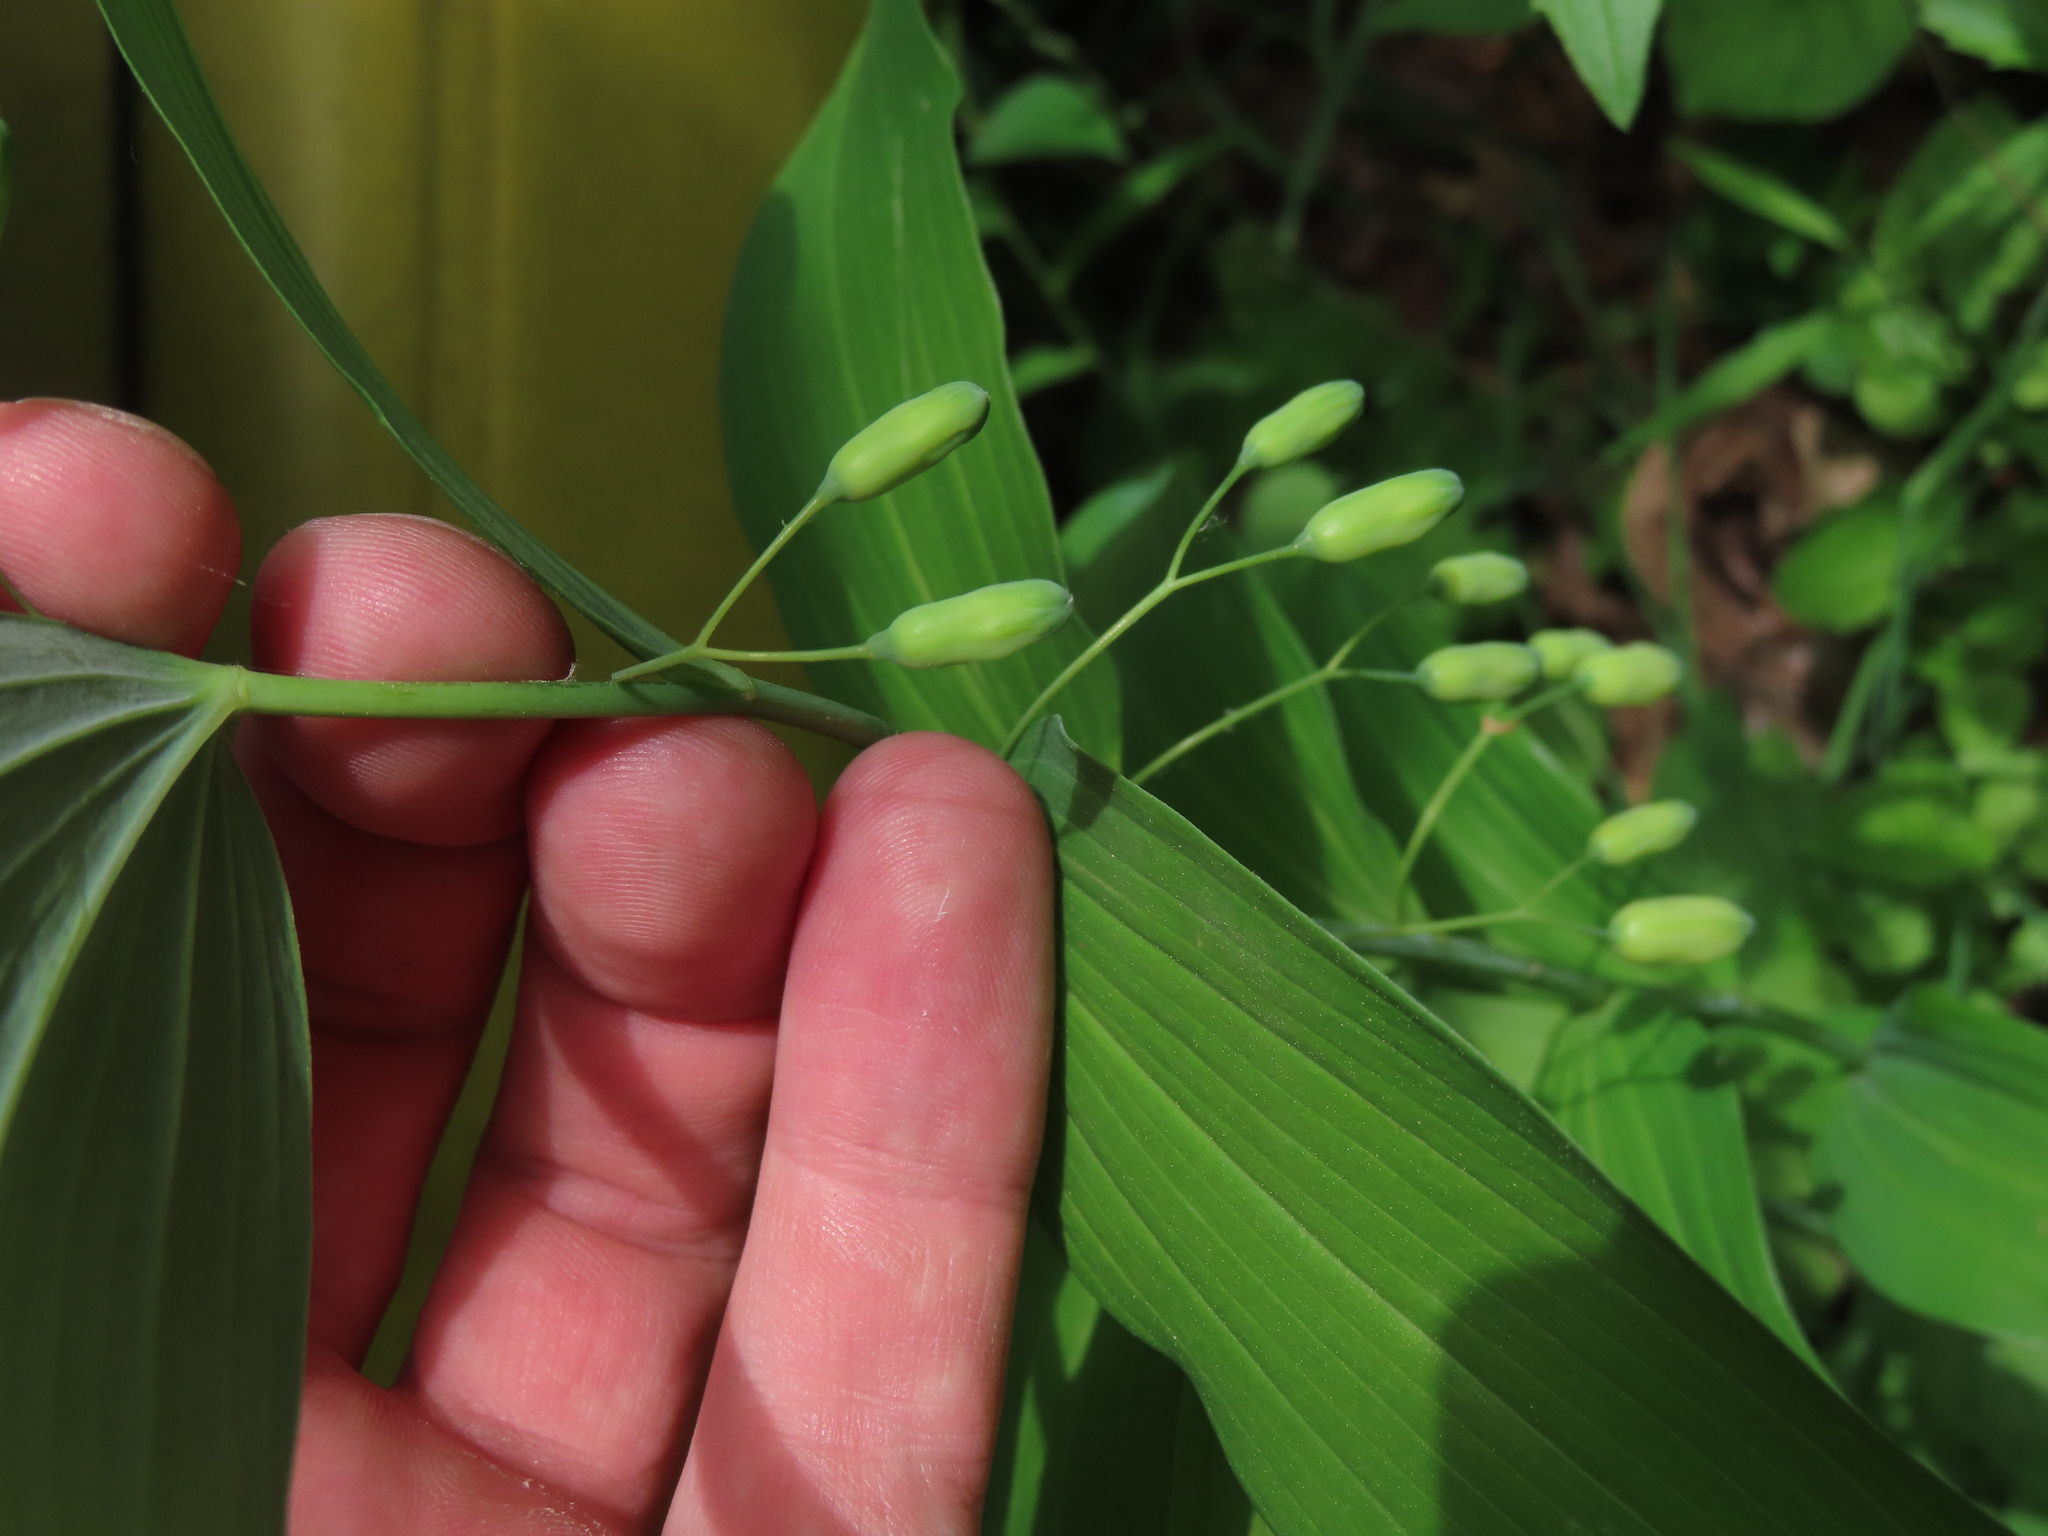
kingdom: Plantae
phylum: Tracheophyta
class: Liliopsida
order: Asparagales
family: Asparagaceae
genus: Polygonatum
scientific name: Polygonatum biflorum
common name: American solomon's-seal
